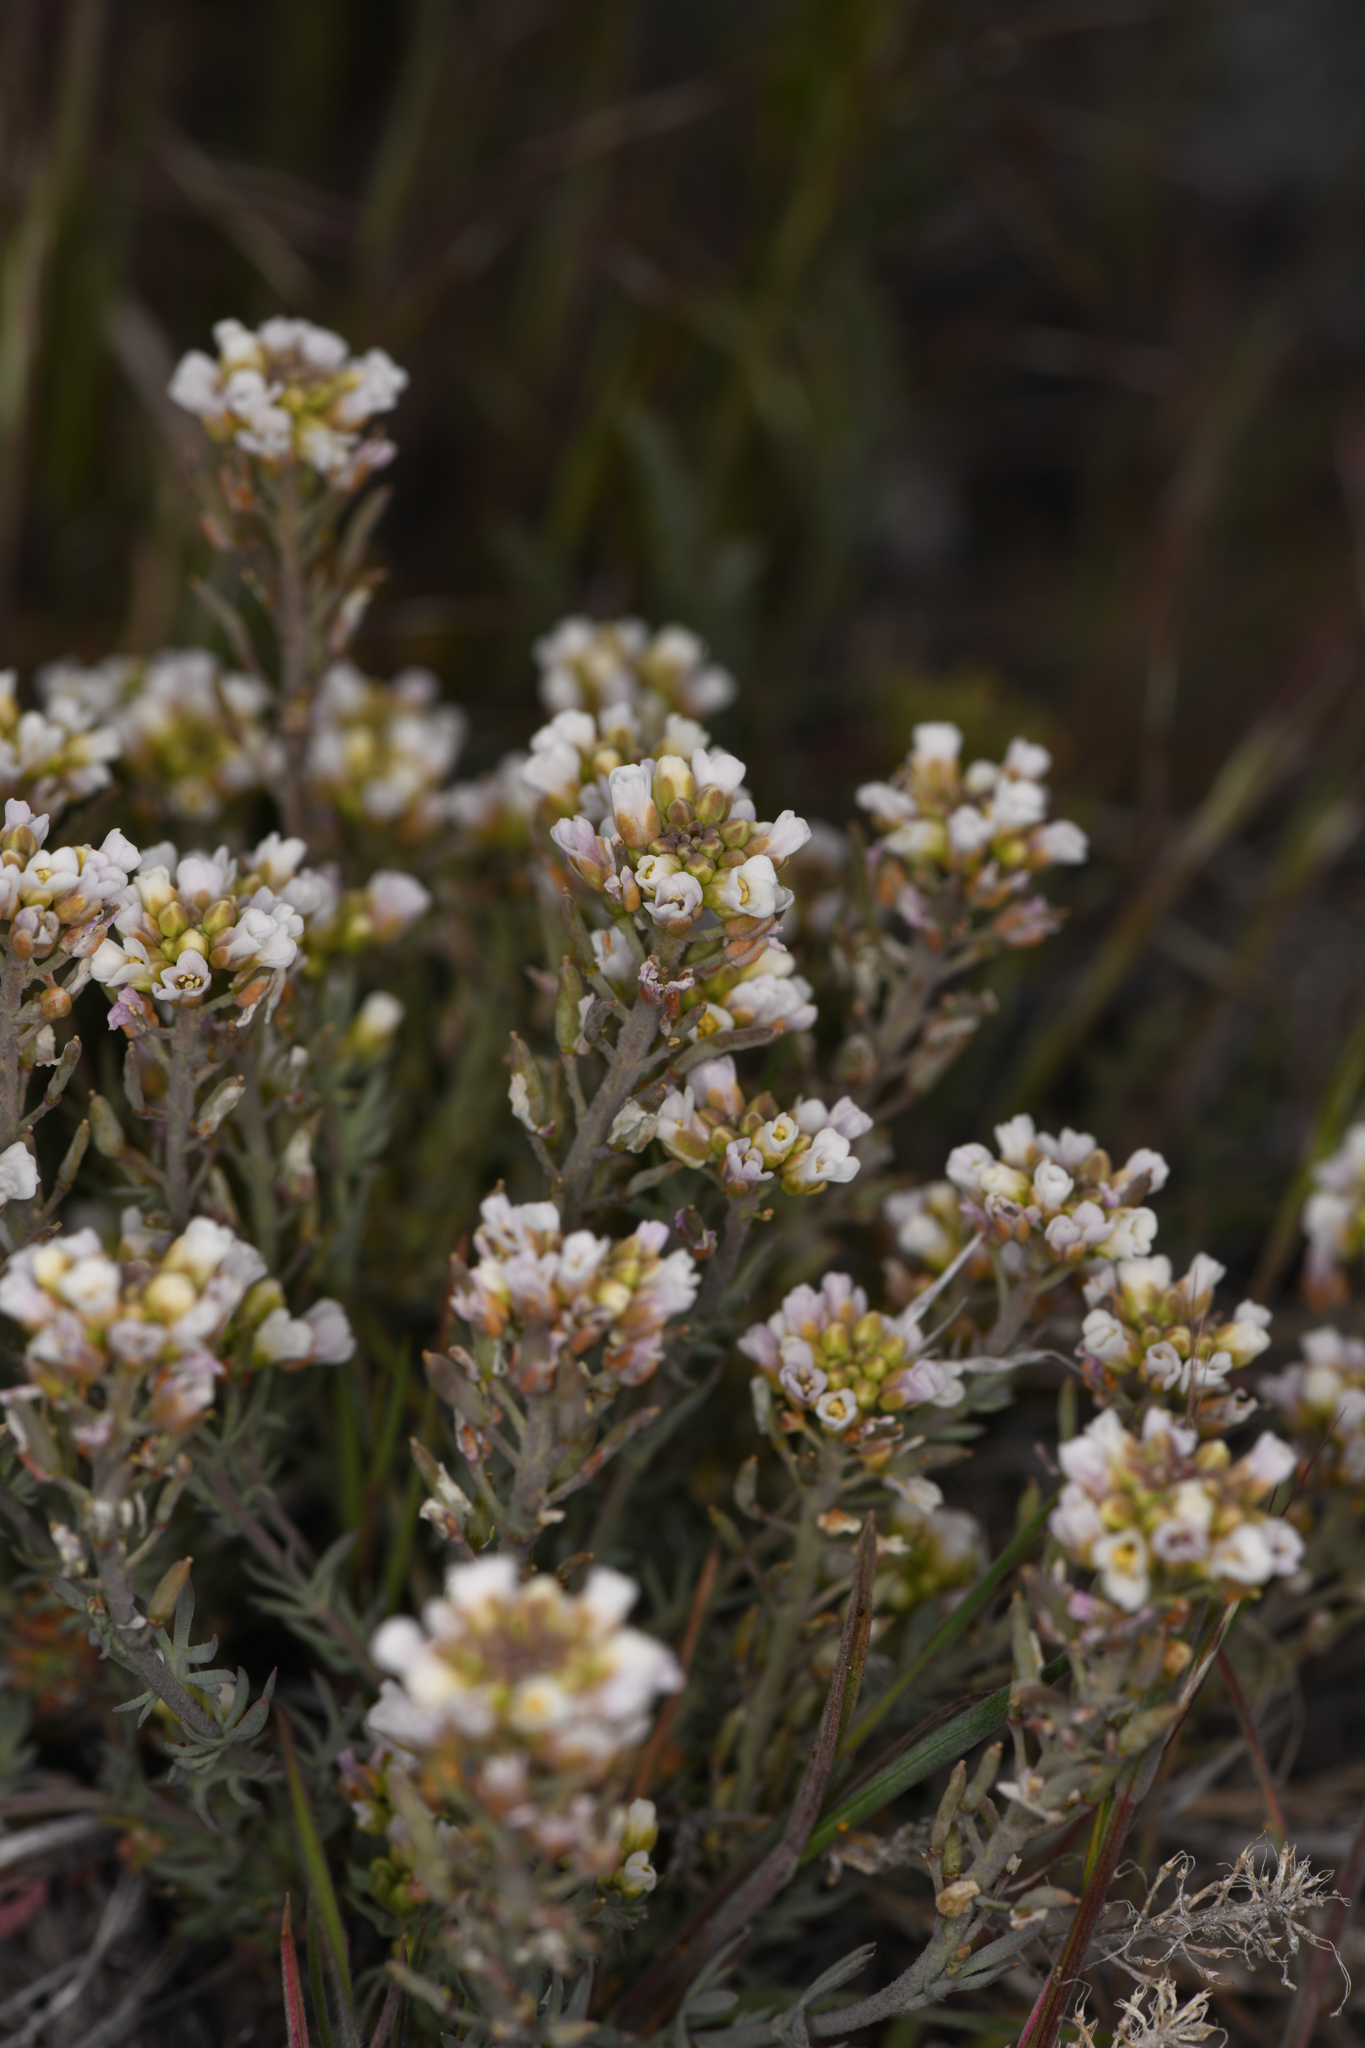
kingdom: Plantae
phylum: Tracheophyta
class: Magnoliopsida
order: Brassicales
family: Brassicaceae
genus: Cusickiella
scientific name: Cusickiella douglasii
